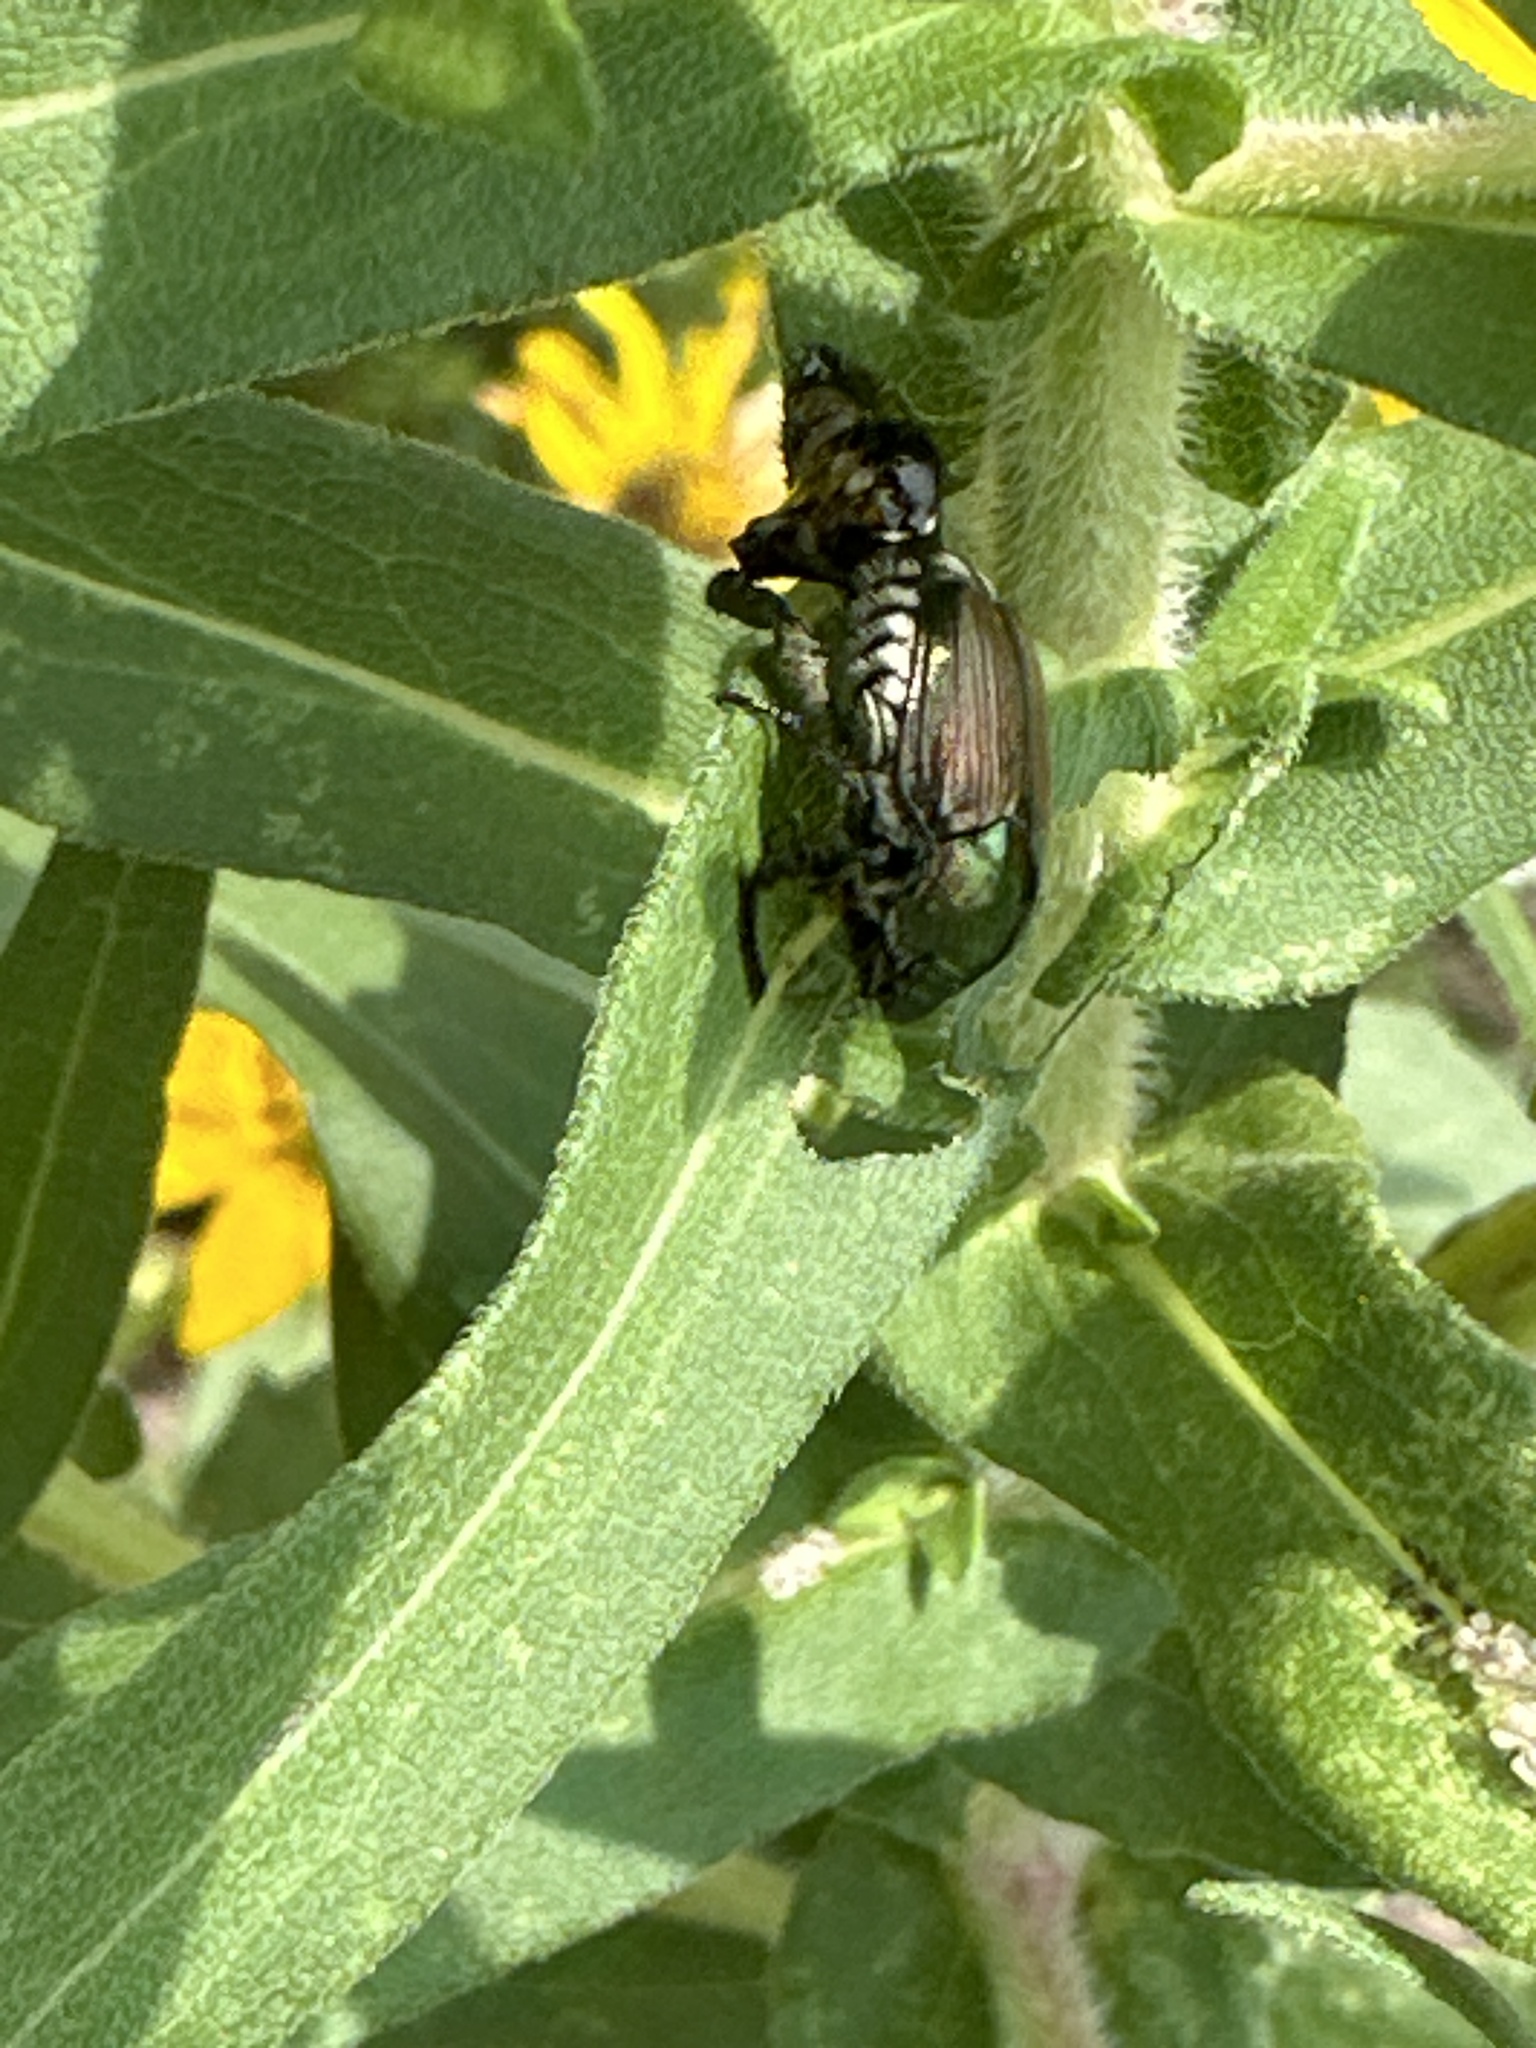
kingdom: Animalia
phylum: Arthropoda
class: Insecta
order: Coleoptera
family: Scarabaeidae
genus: Popillia
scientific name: Popillia japonica
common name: Japanese beetle
